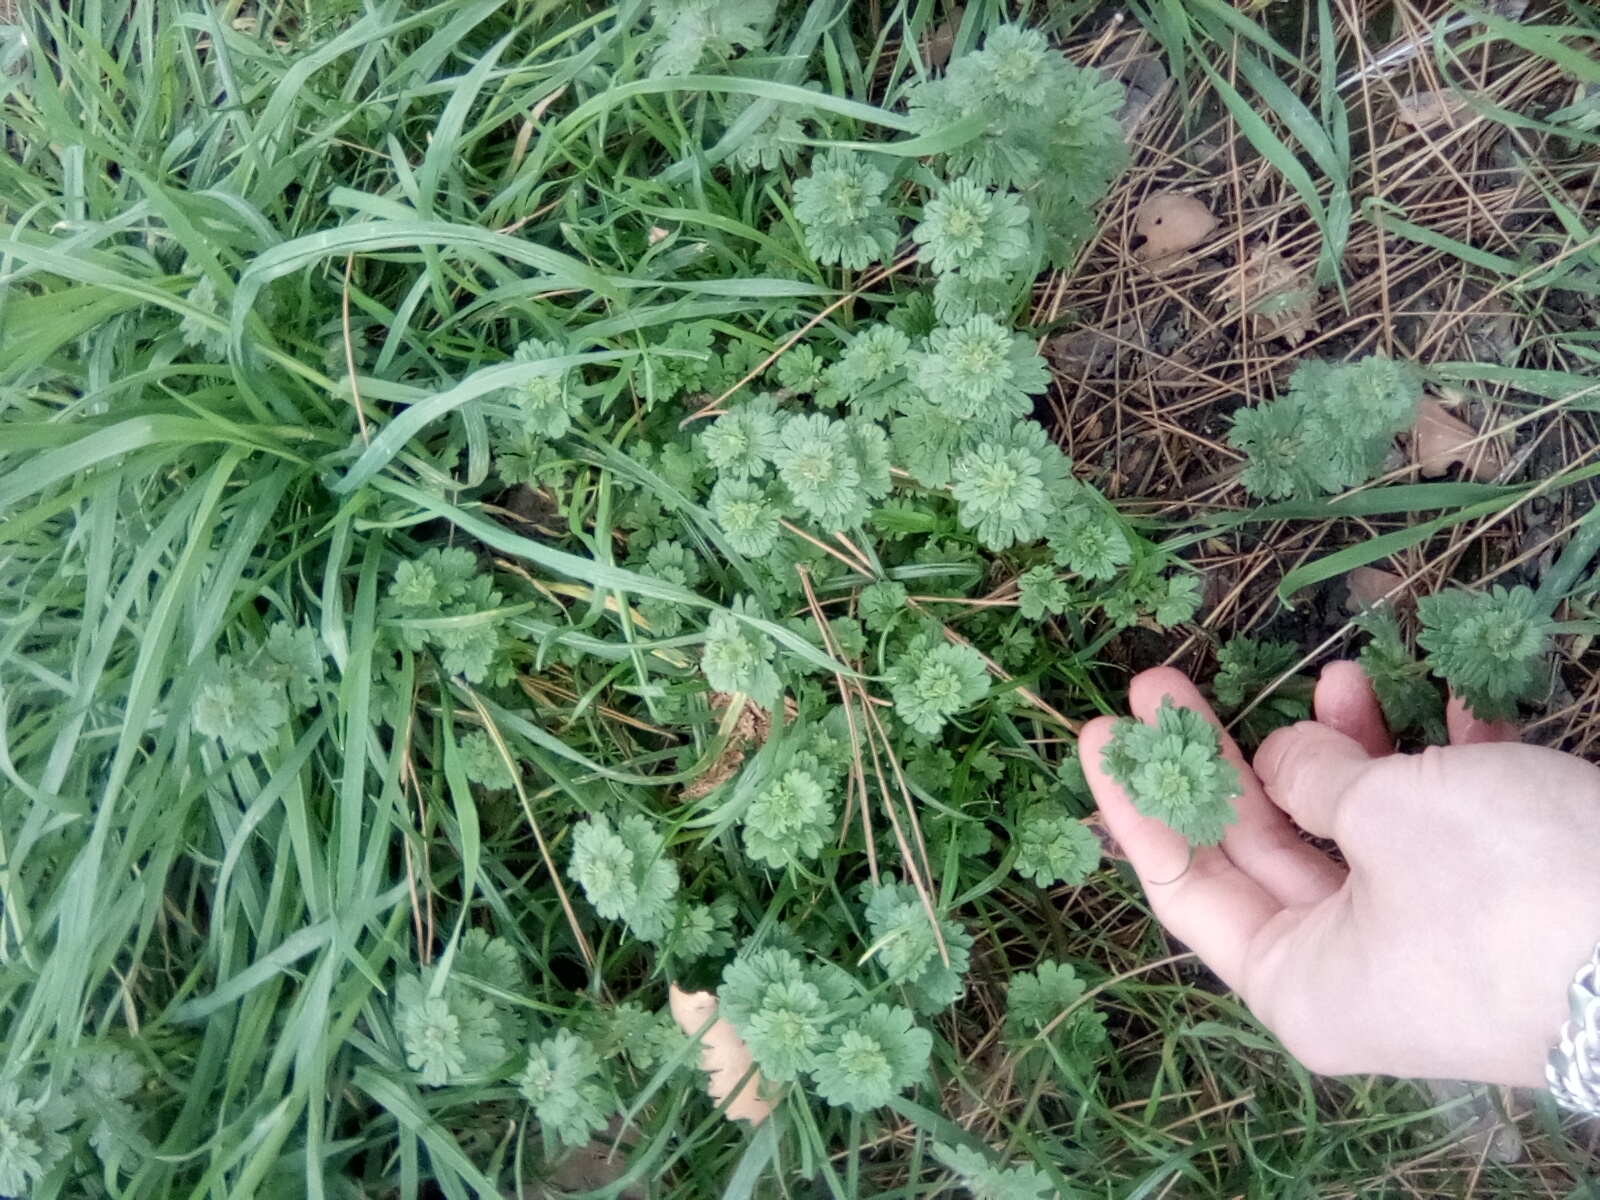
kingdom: Plantae
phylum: Tracheophyta
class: Magnoliopsida
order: Lamiales
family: Lamiaceae
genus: Lamium
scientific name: Lamium amplexicaule
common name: Henbit dead-nettle
